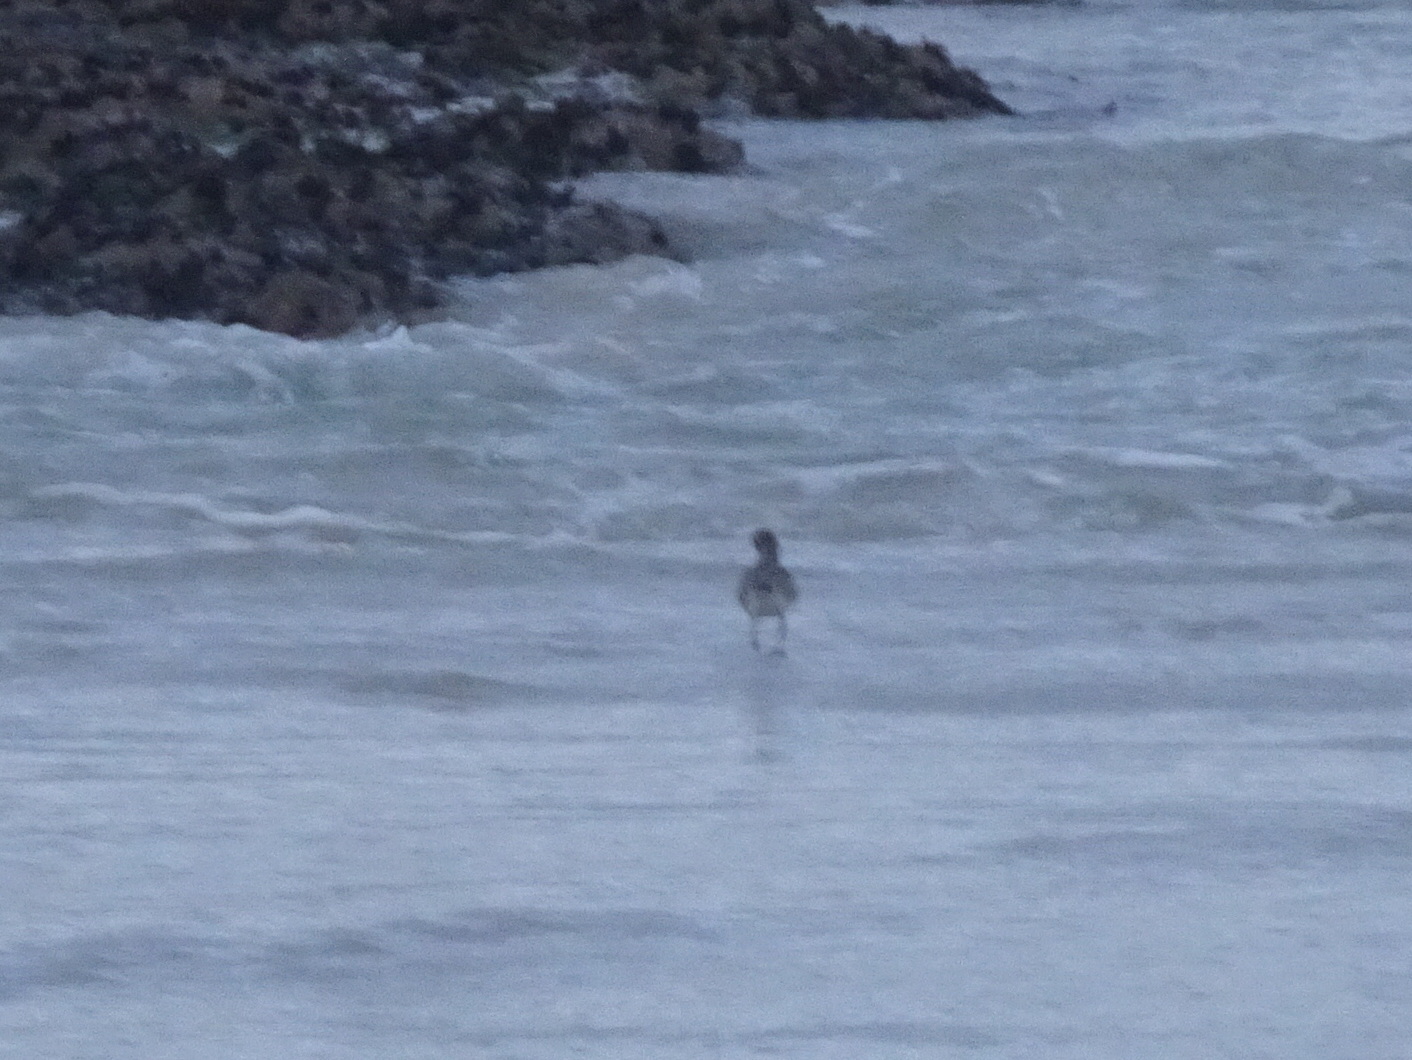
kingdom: Animalia
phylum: Chordata
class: Aves
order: Charadriiformes
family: Charadriidae
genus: Pluvialis
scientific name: Pluvialis squatarola
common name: Grey plover
